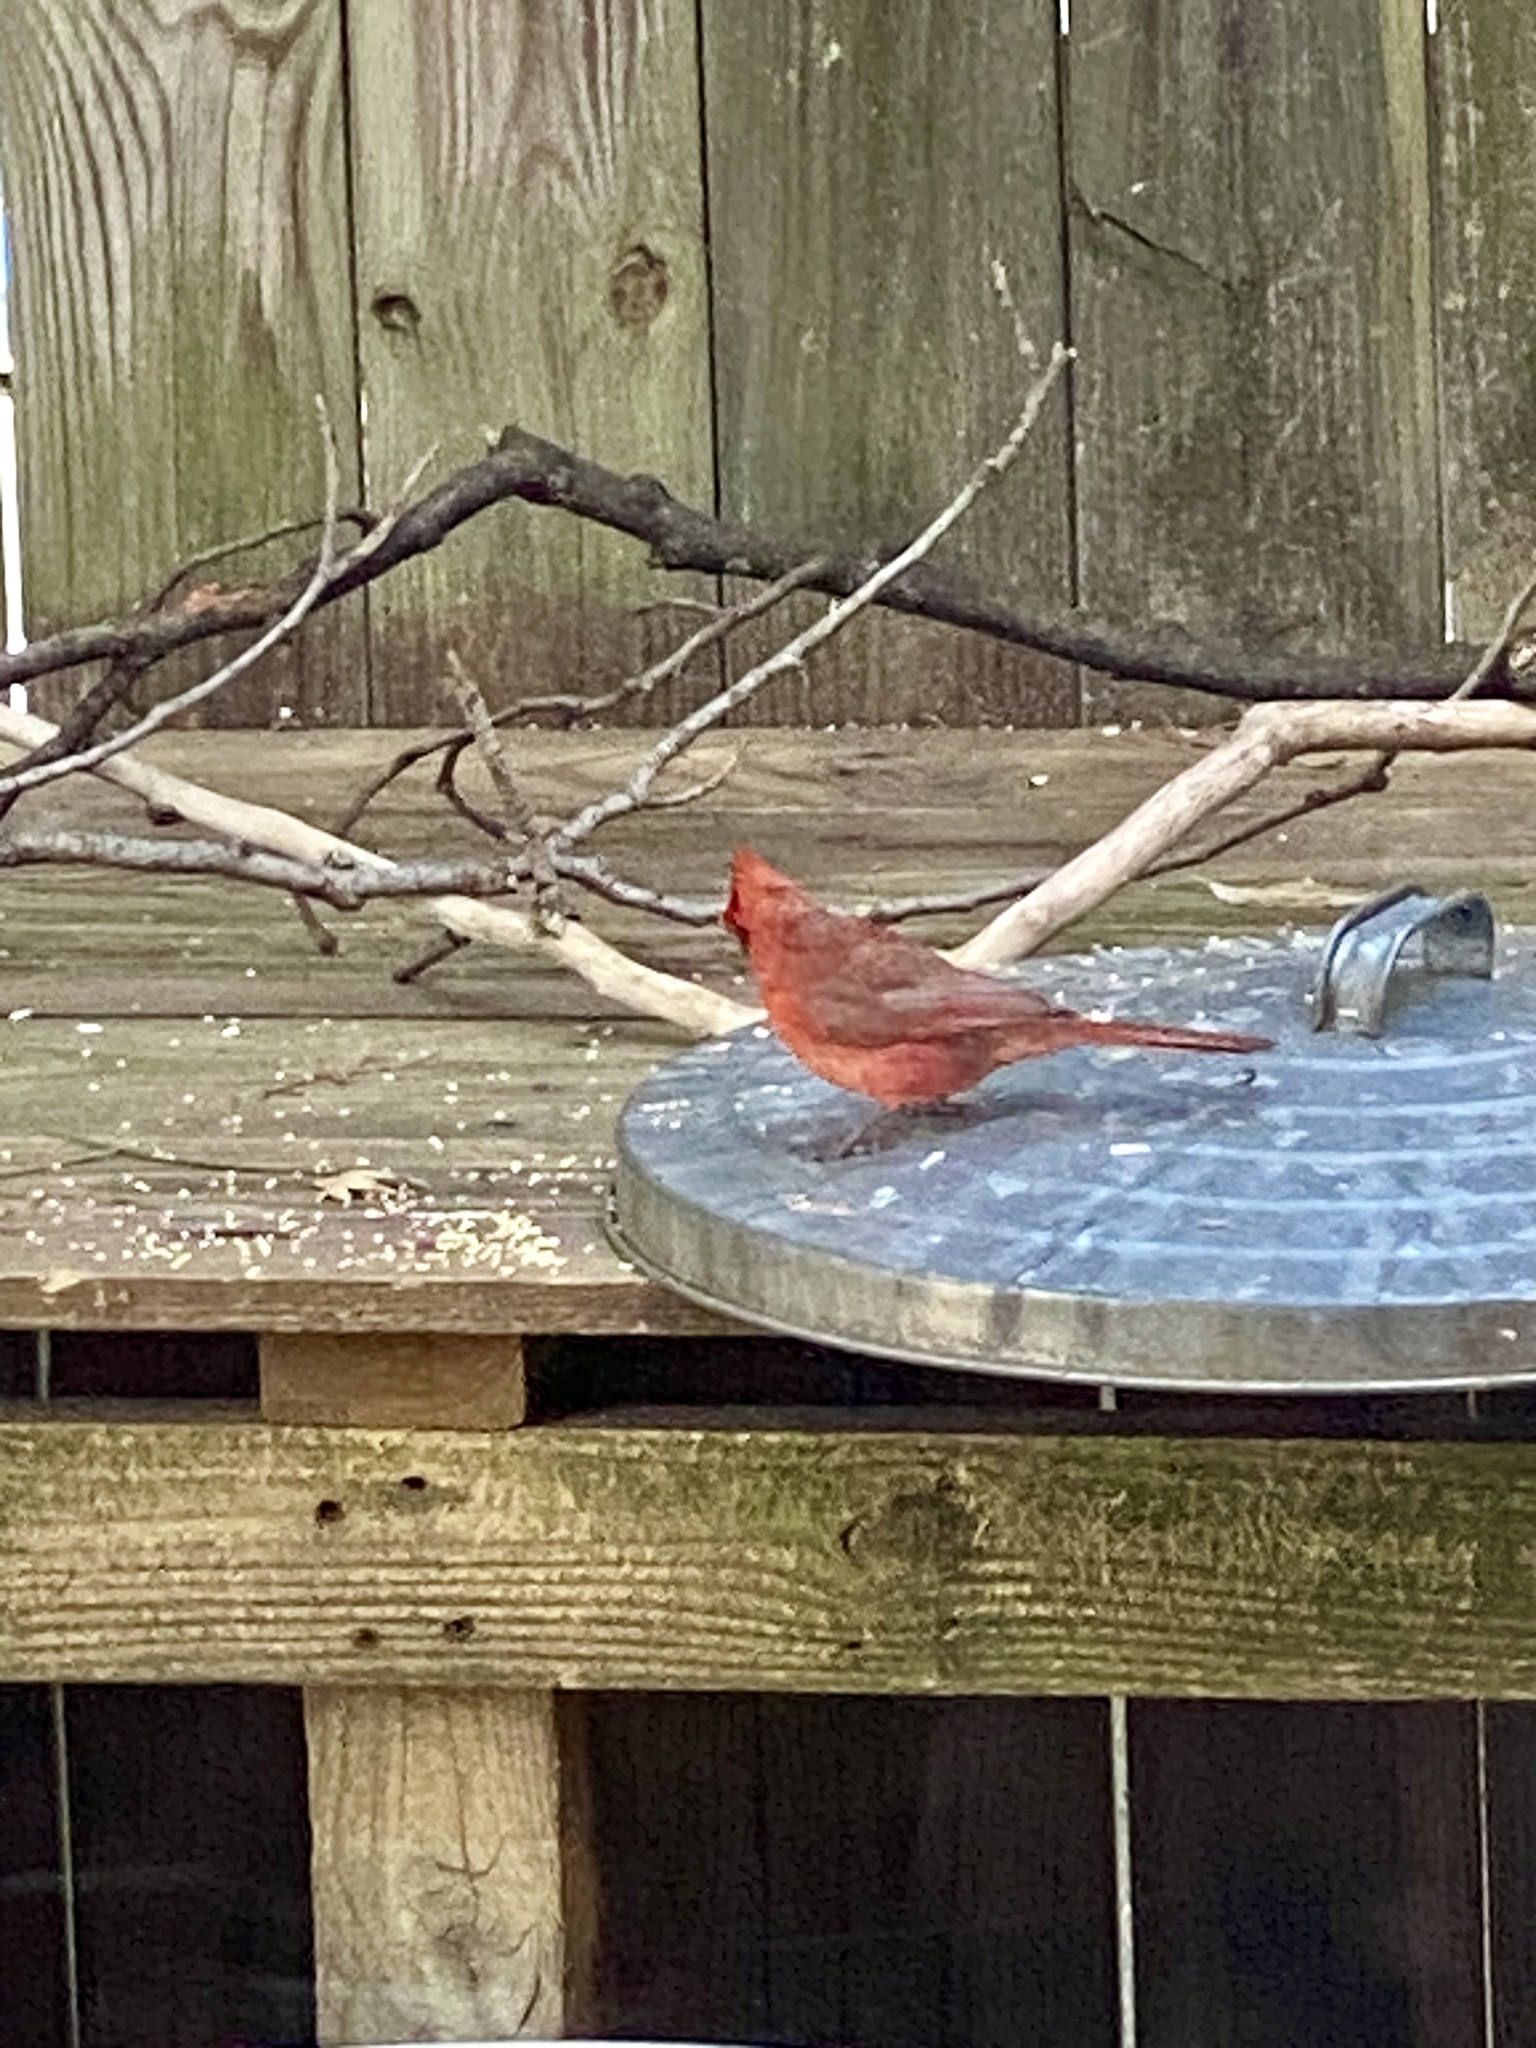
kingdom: Animalia
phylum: Chordata
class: Aves
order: Passeriformes
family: Cardinalidae
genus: Cardinalis
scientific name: Cardinalis cardinalis
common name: Northern cardinal
